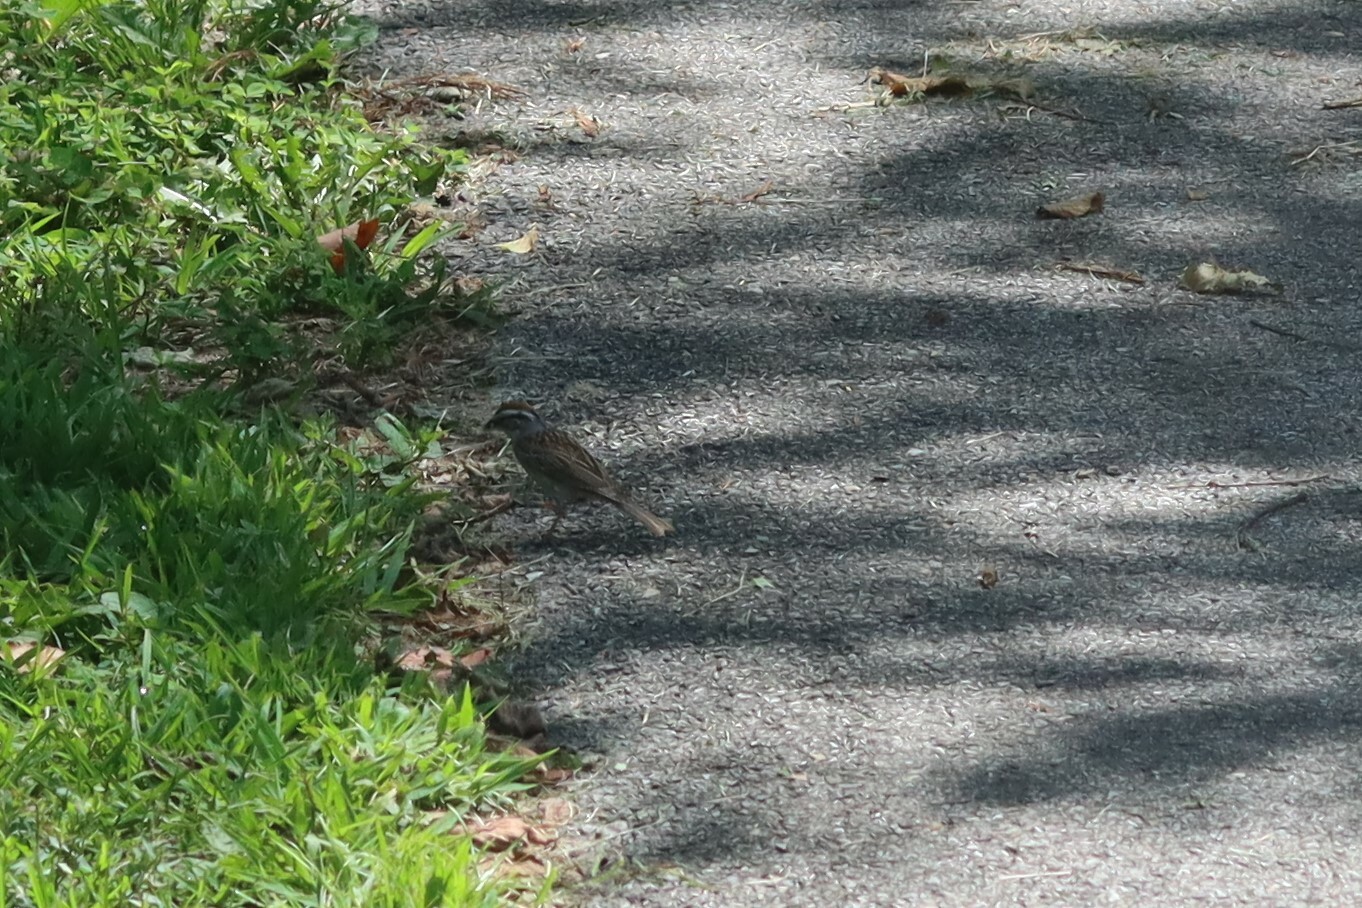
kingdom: Animalia
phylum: Chordata
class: Aves
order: Passeriformes
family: Passerellidae
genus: Spizella
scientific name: Spizella passerina
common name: Chipping sparrow
